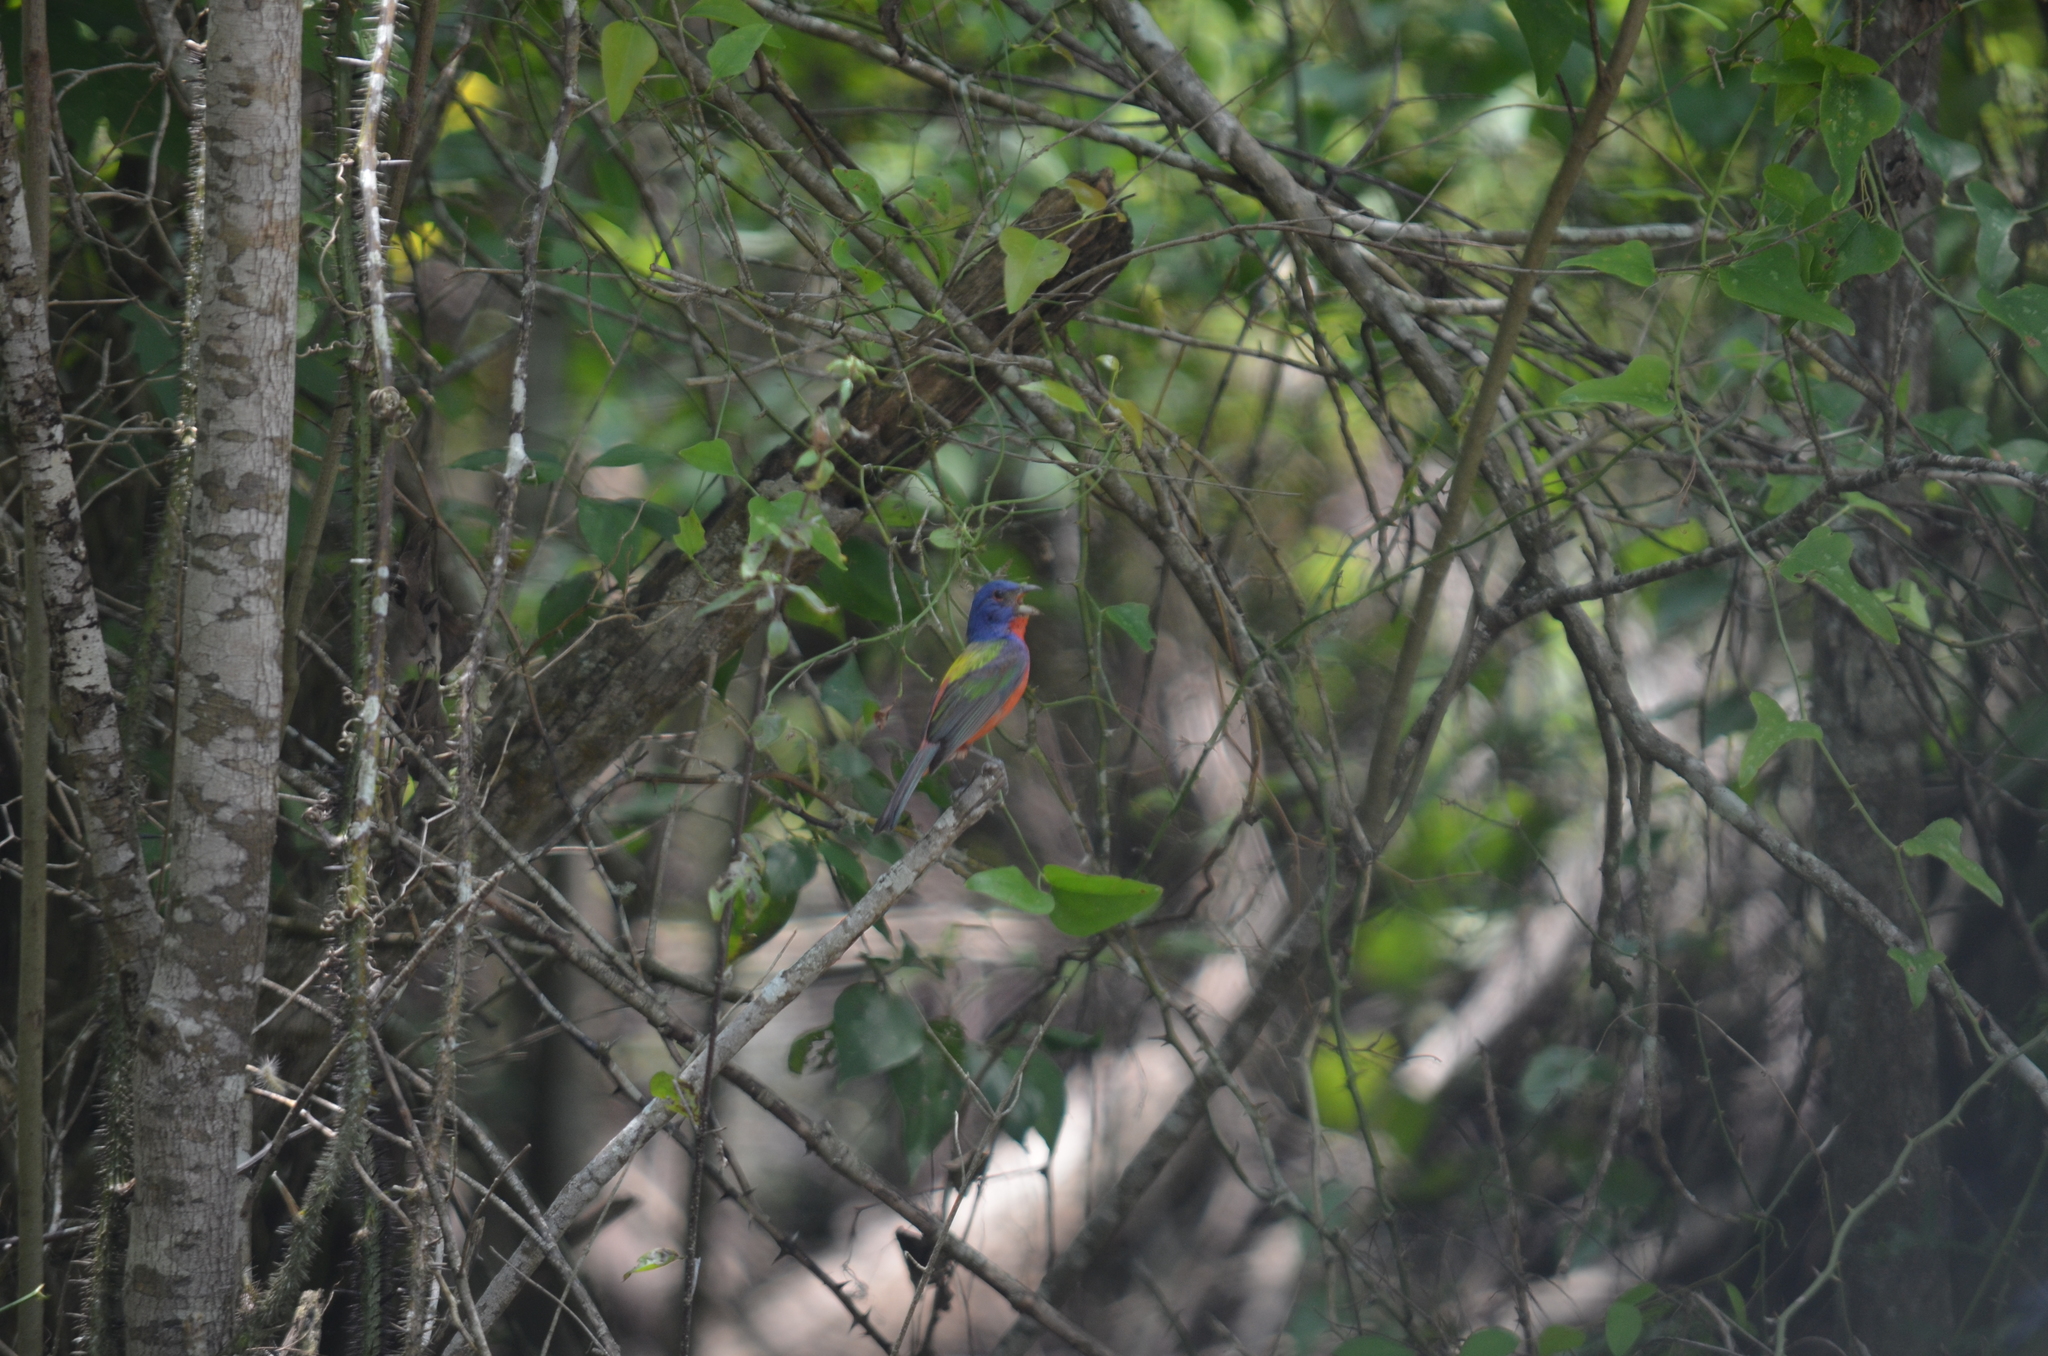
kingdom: Animalia
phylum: Chordata
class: Aves
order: Passeriformes
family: Cardinalidae
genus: Passerina
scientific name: Passerina ciris
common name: Painted bunting
